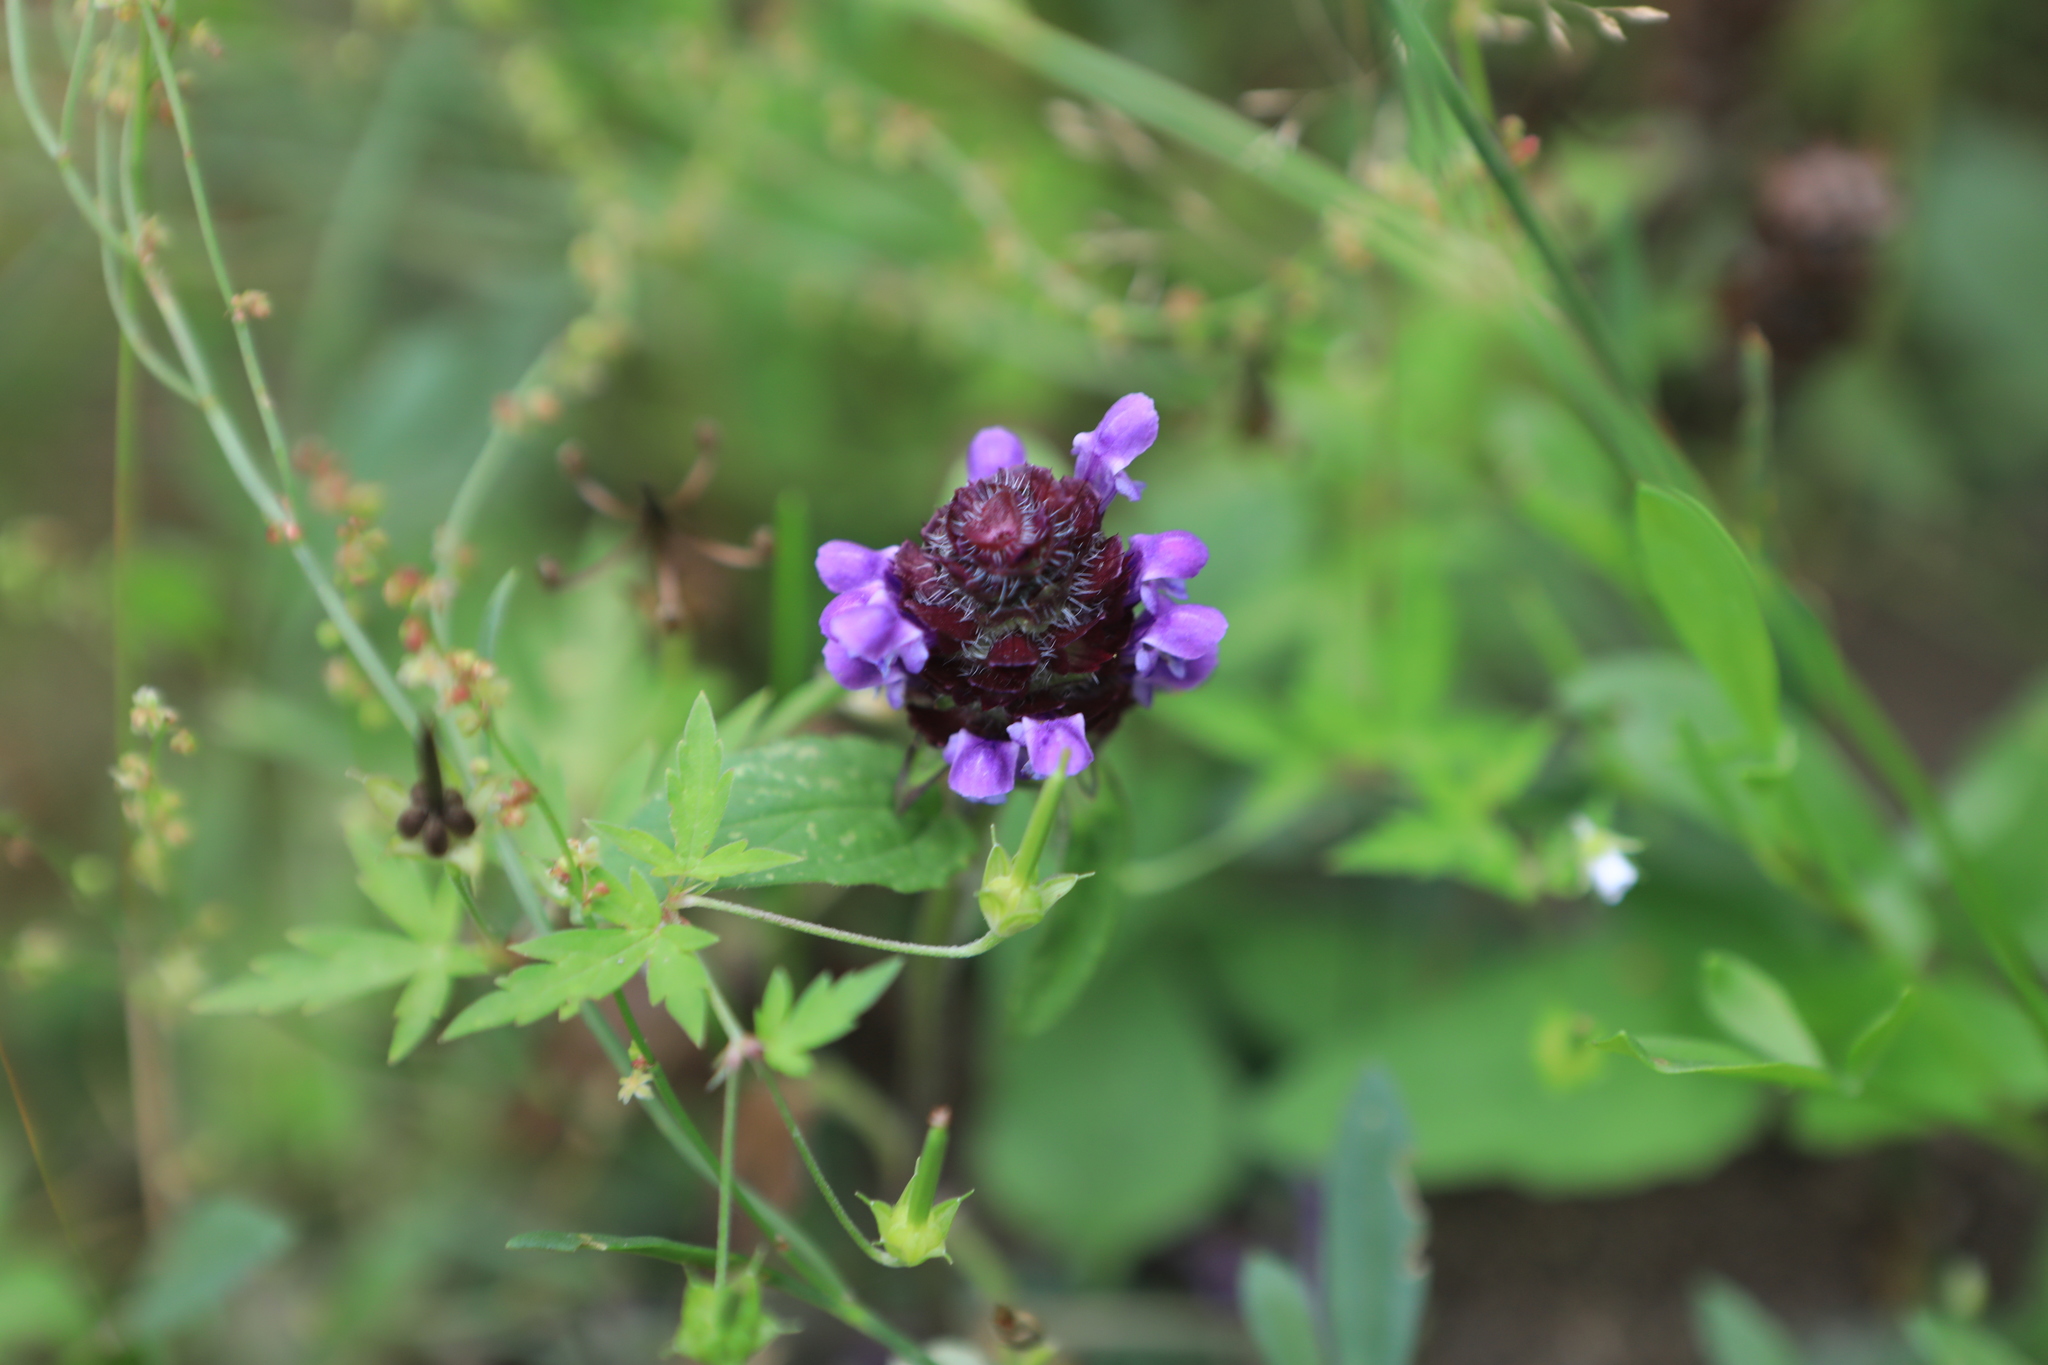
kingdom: Plantae
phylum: Tracheophyta
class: Magnoliopsida
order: Lamiales
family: Lamiaceae
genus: Prunella
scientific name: Prunella vulgaris
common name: Heal-all
